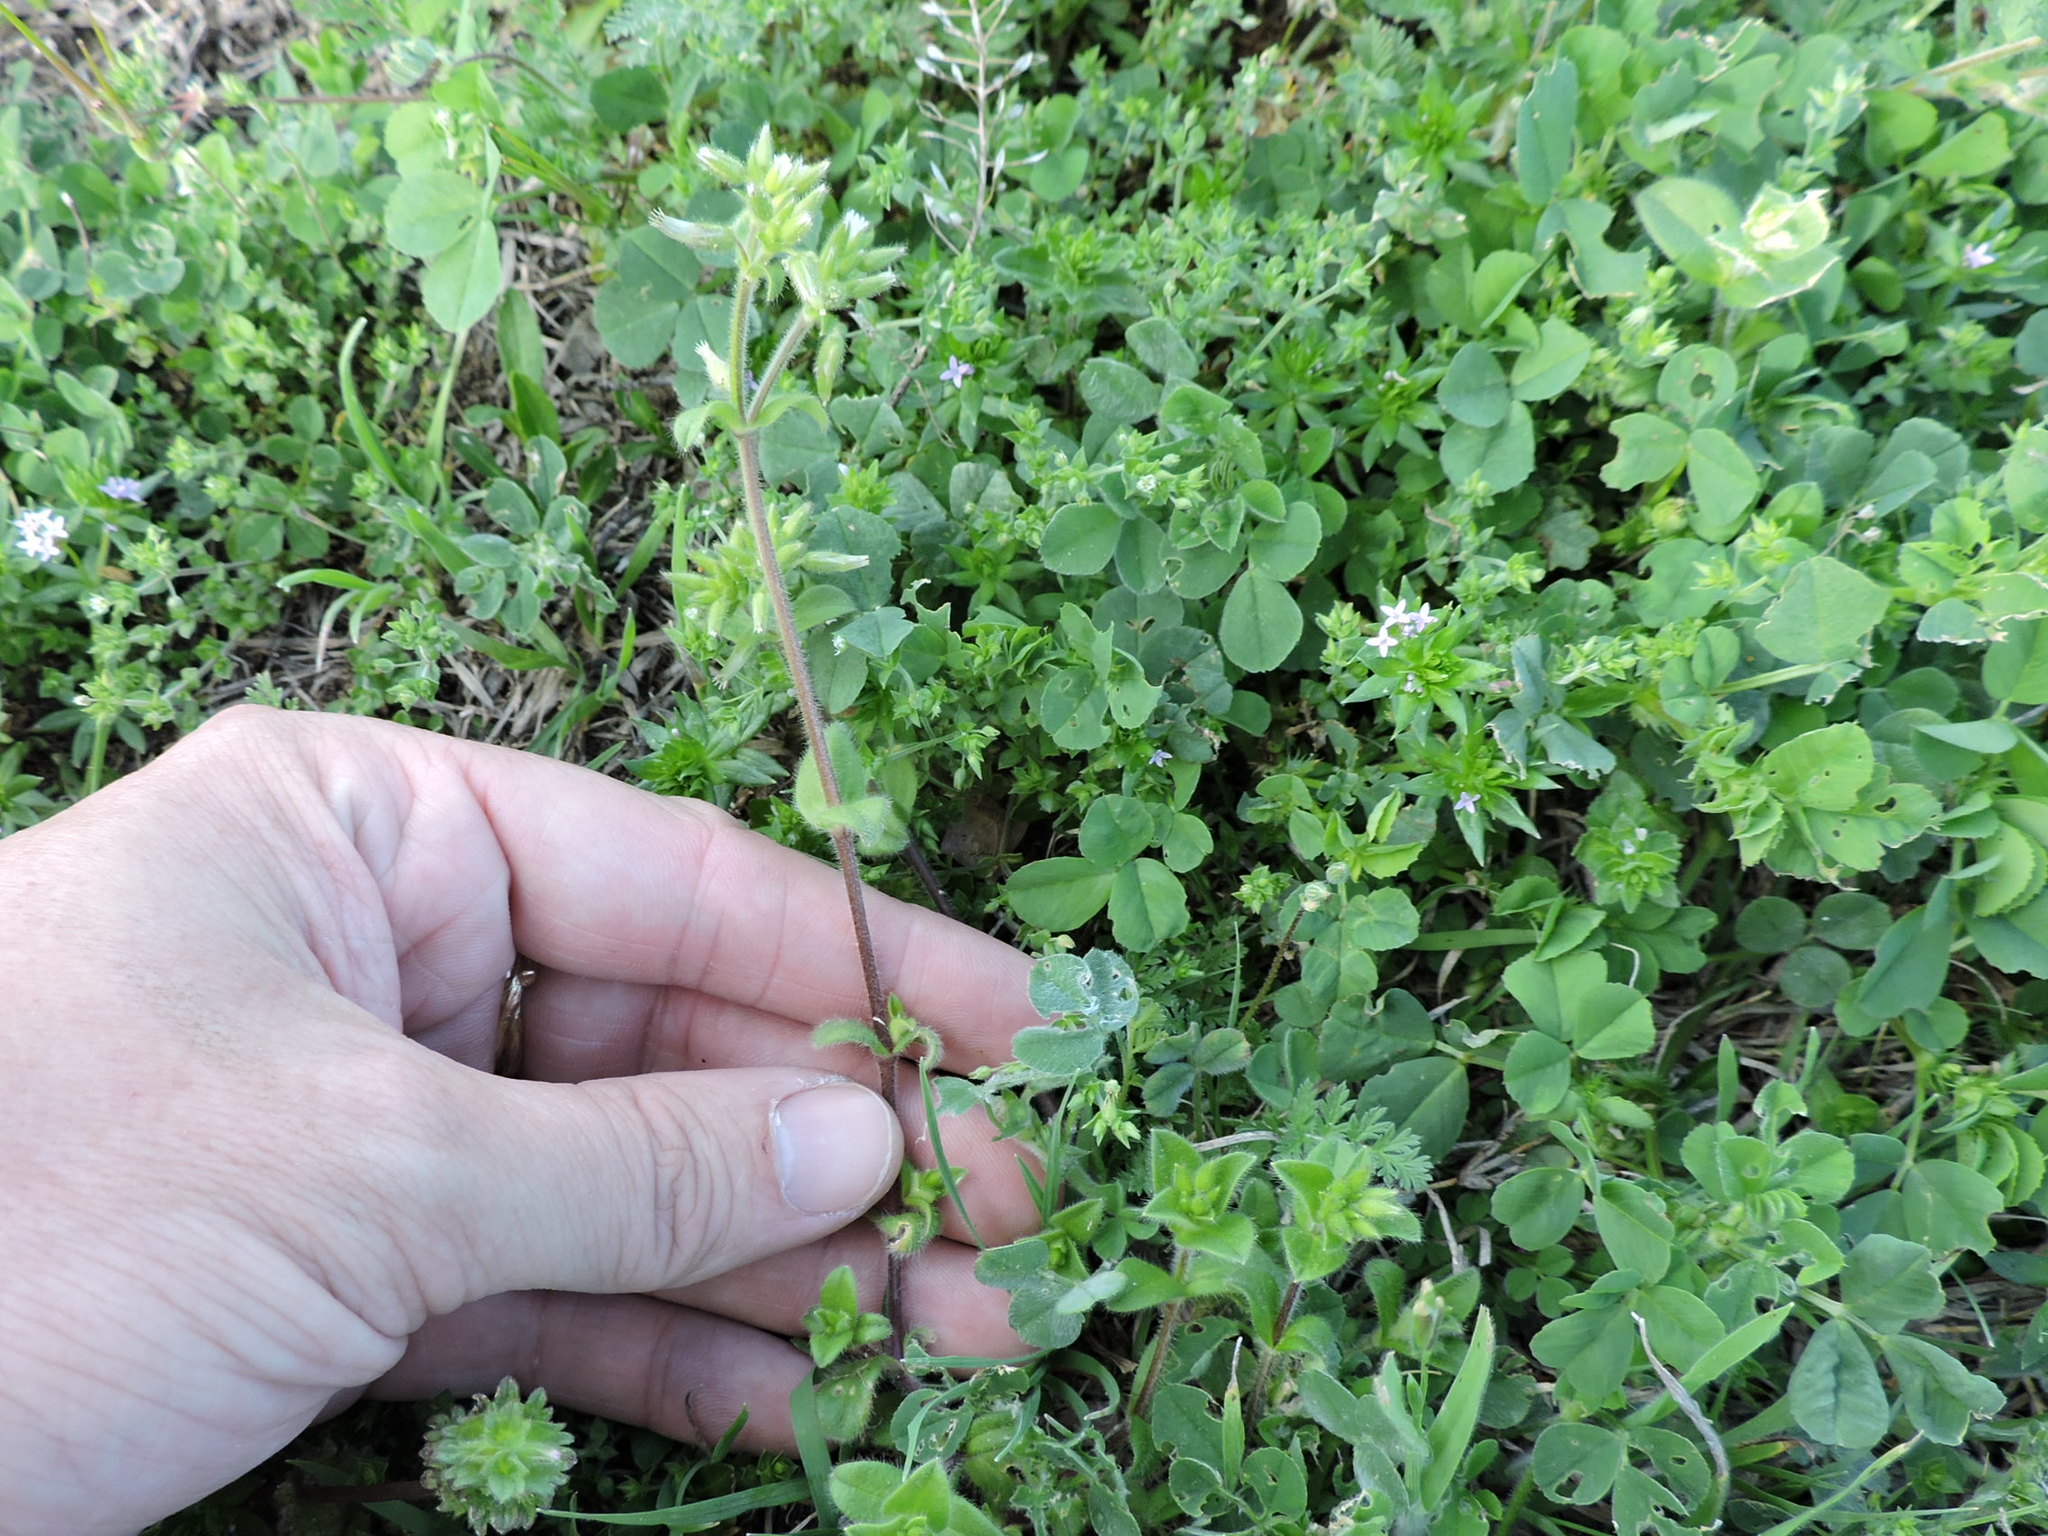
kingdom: Plantae
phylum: Tracheophyta
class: Magnoliopsida
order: Caryophyllales
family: Caryophyllaceae
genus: Cerastium
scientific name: Cerastium glomeratum
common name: Sticky chickweed
